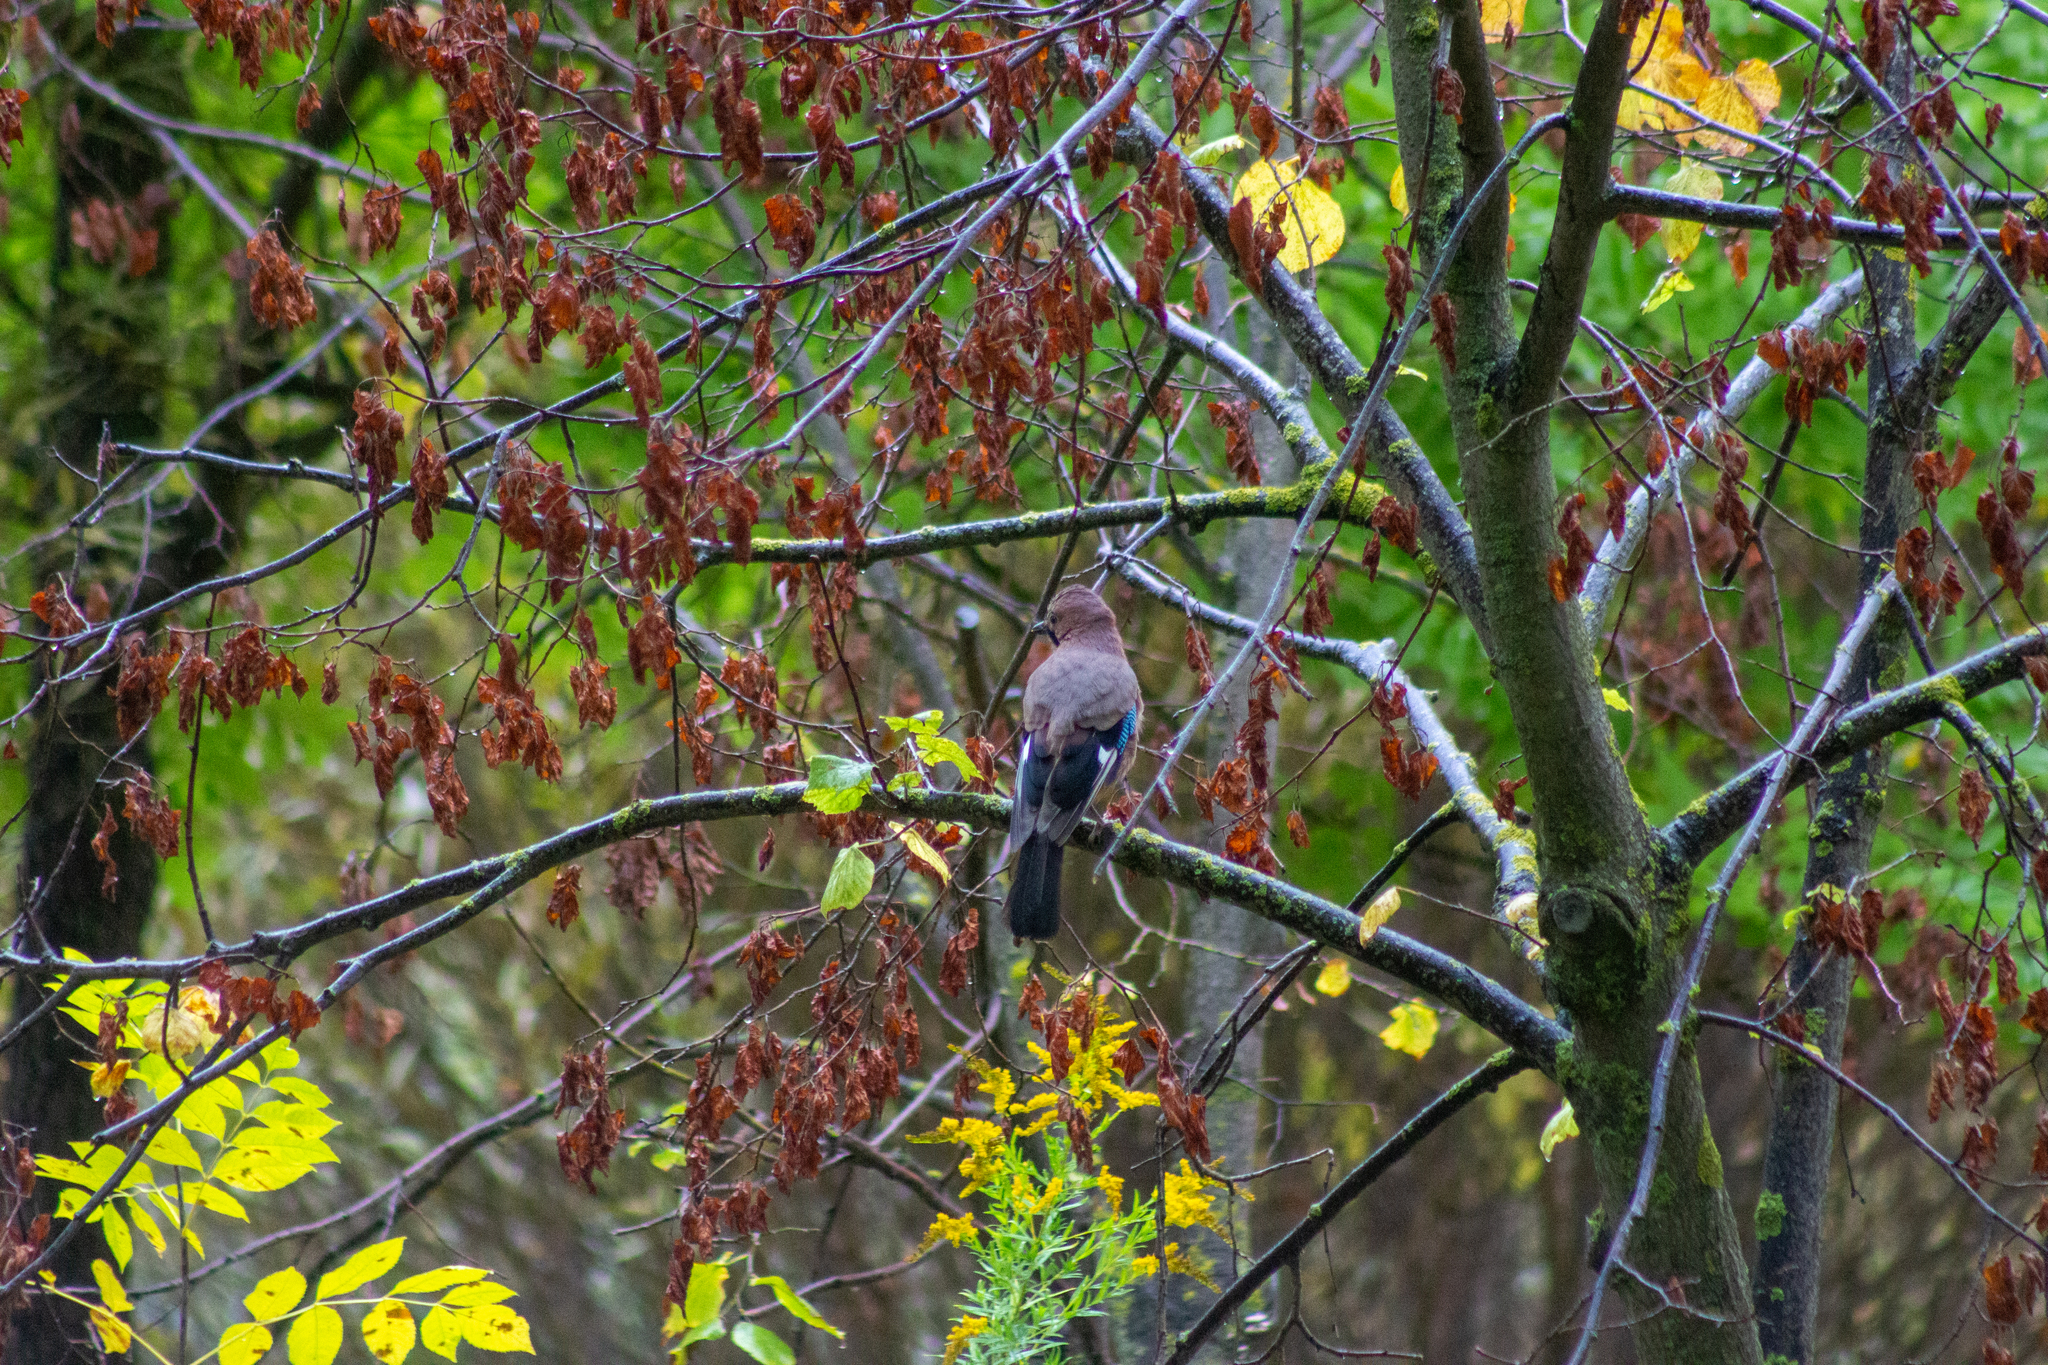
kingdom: Animalia
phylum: Chordata
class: Aves
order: Passeriformes
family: Corvidae
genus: Garrulus
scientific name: Garrulus glandarius
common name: Eurasian jay
